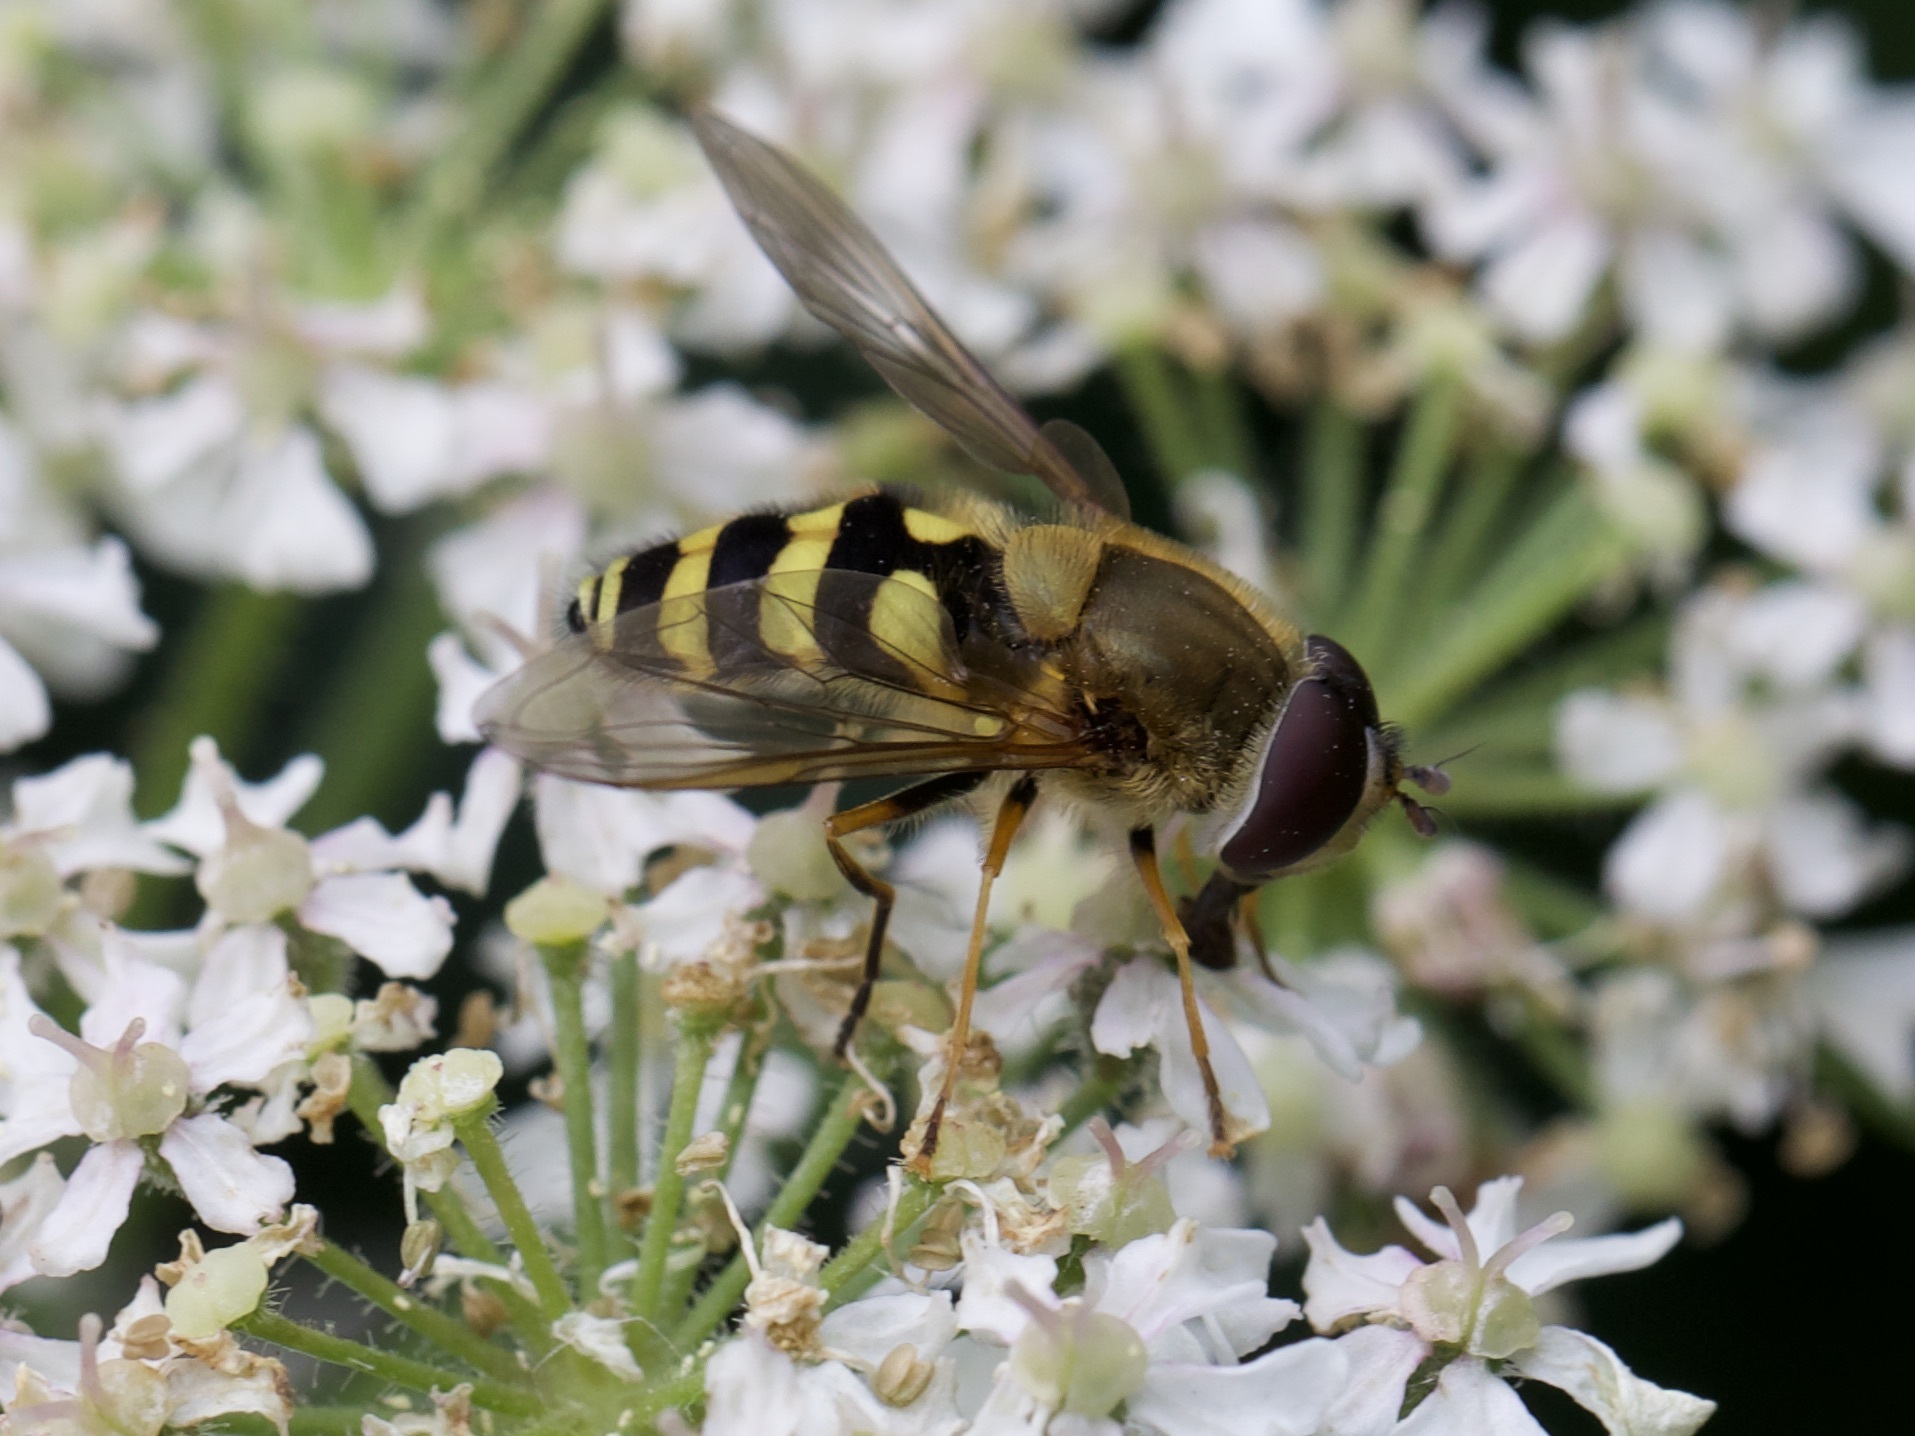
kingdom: Animalia
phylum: Arthropoda
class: Insecta
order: Diptera
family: Syrphidae
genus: Syrphus
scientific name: Syrphus
